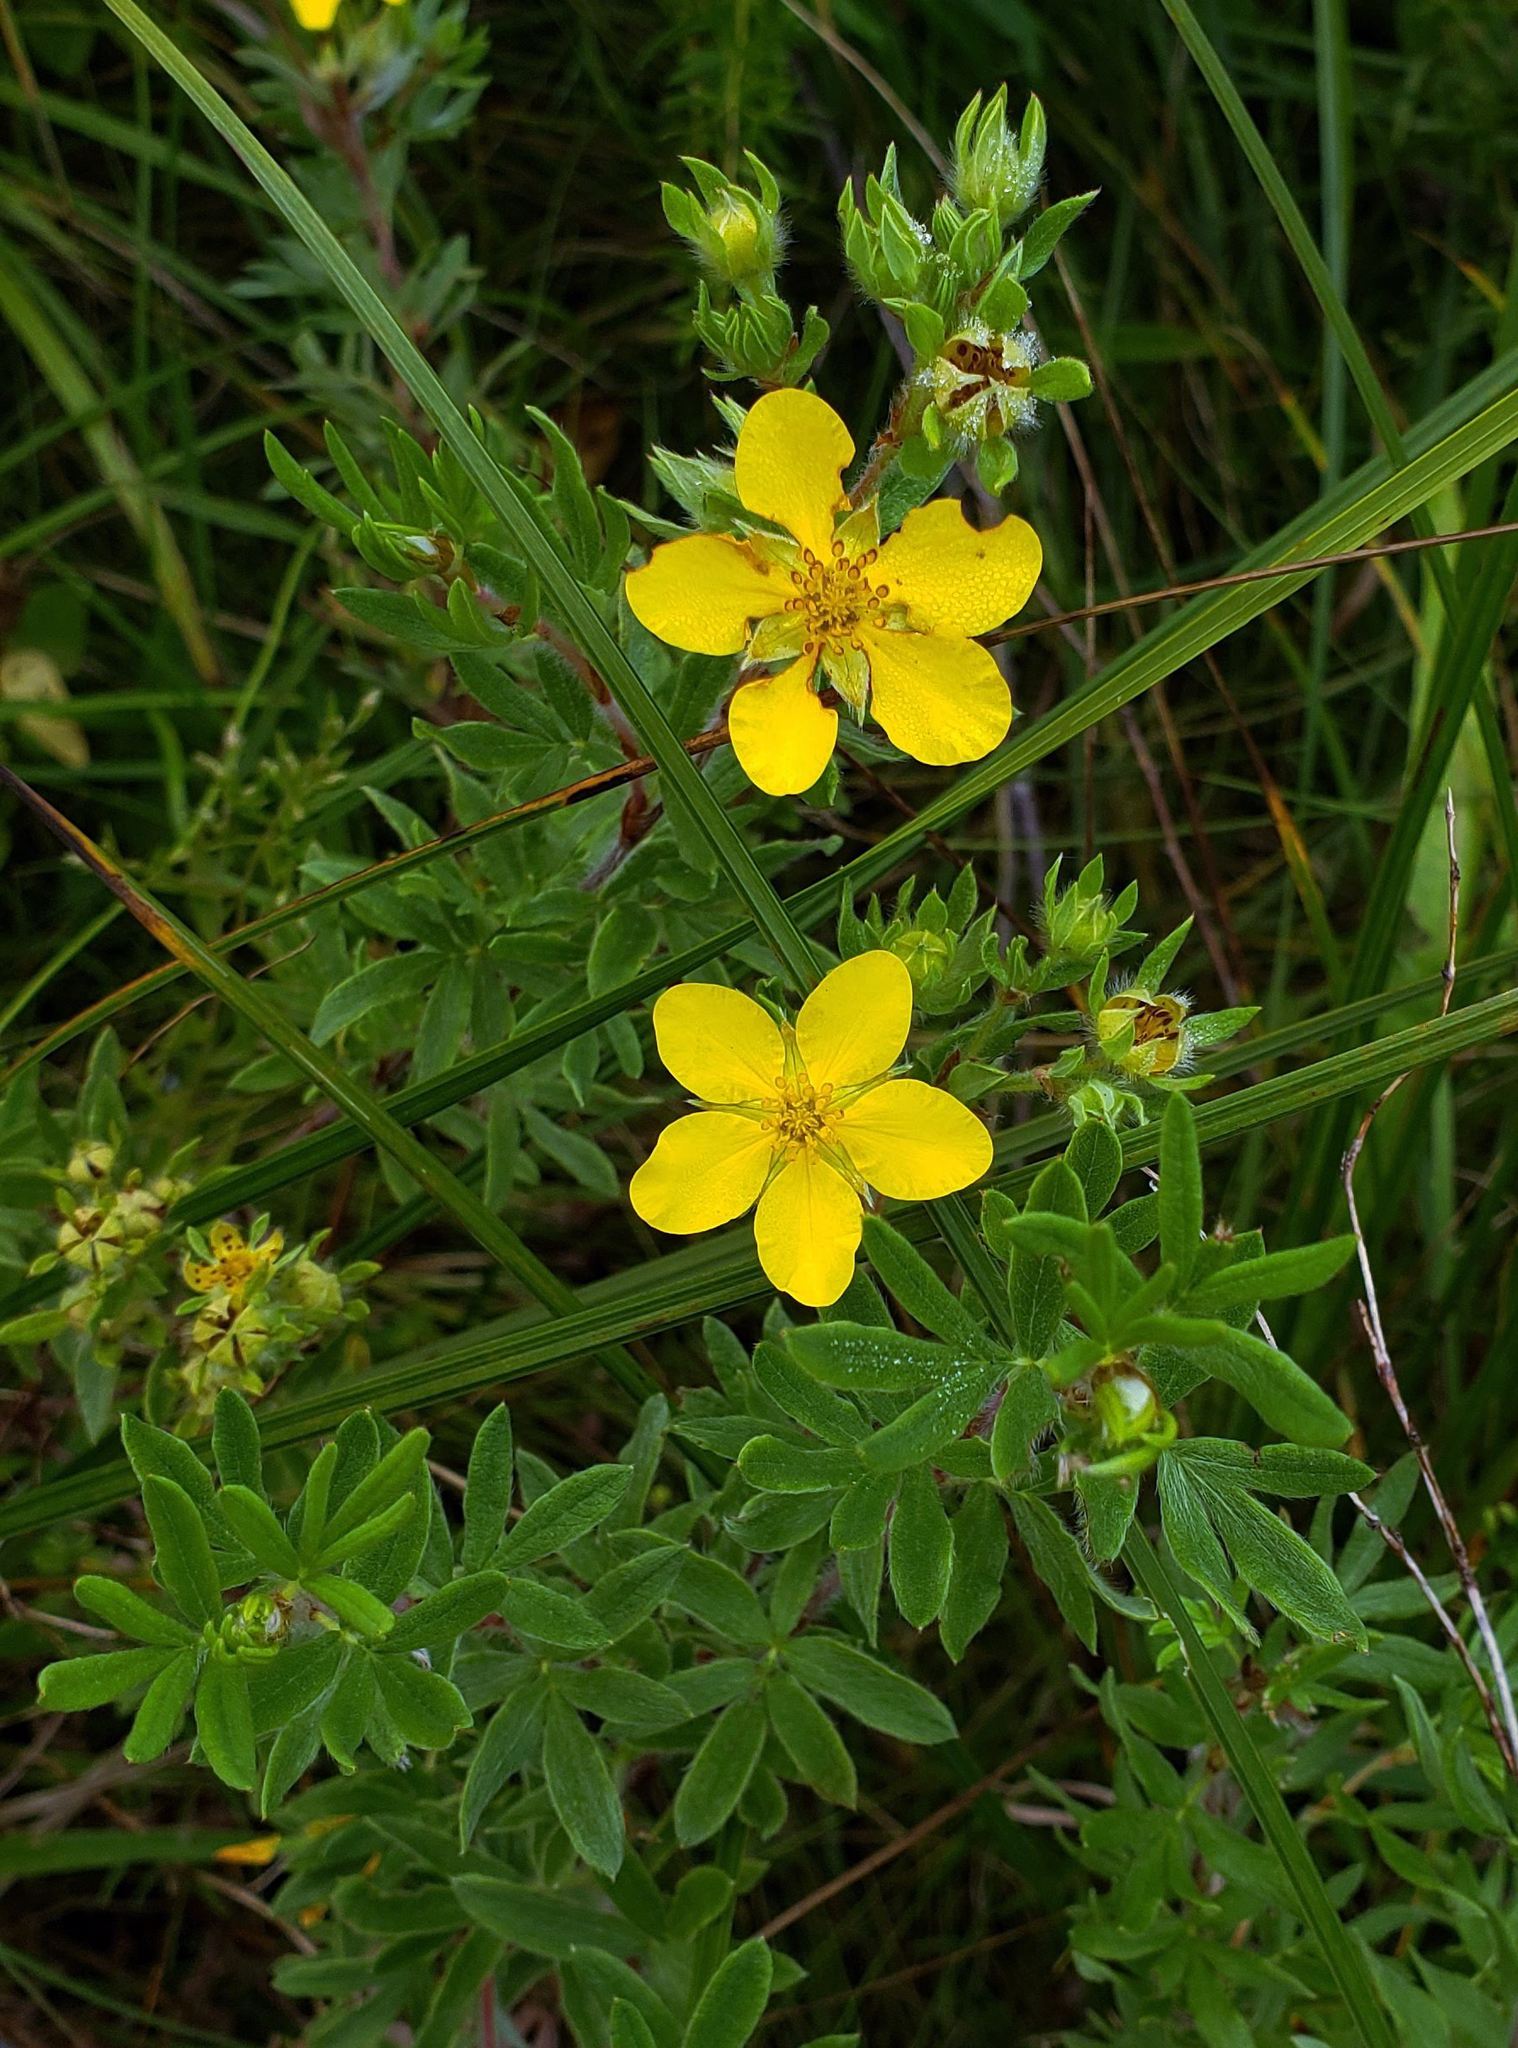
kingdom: Plantae
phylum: Tracheophyta
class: Magnoliopsida
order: Rosales
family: Rosaceae
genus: Dasiphora
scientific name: Dasiphora fruticosa
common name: Shrubby cinquefoil
